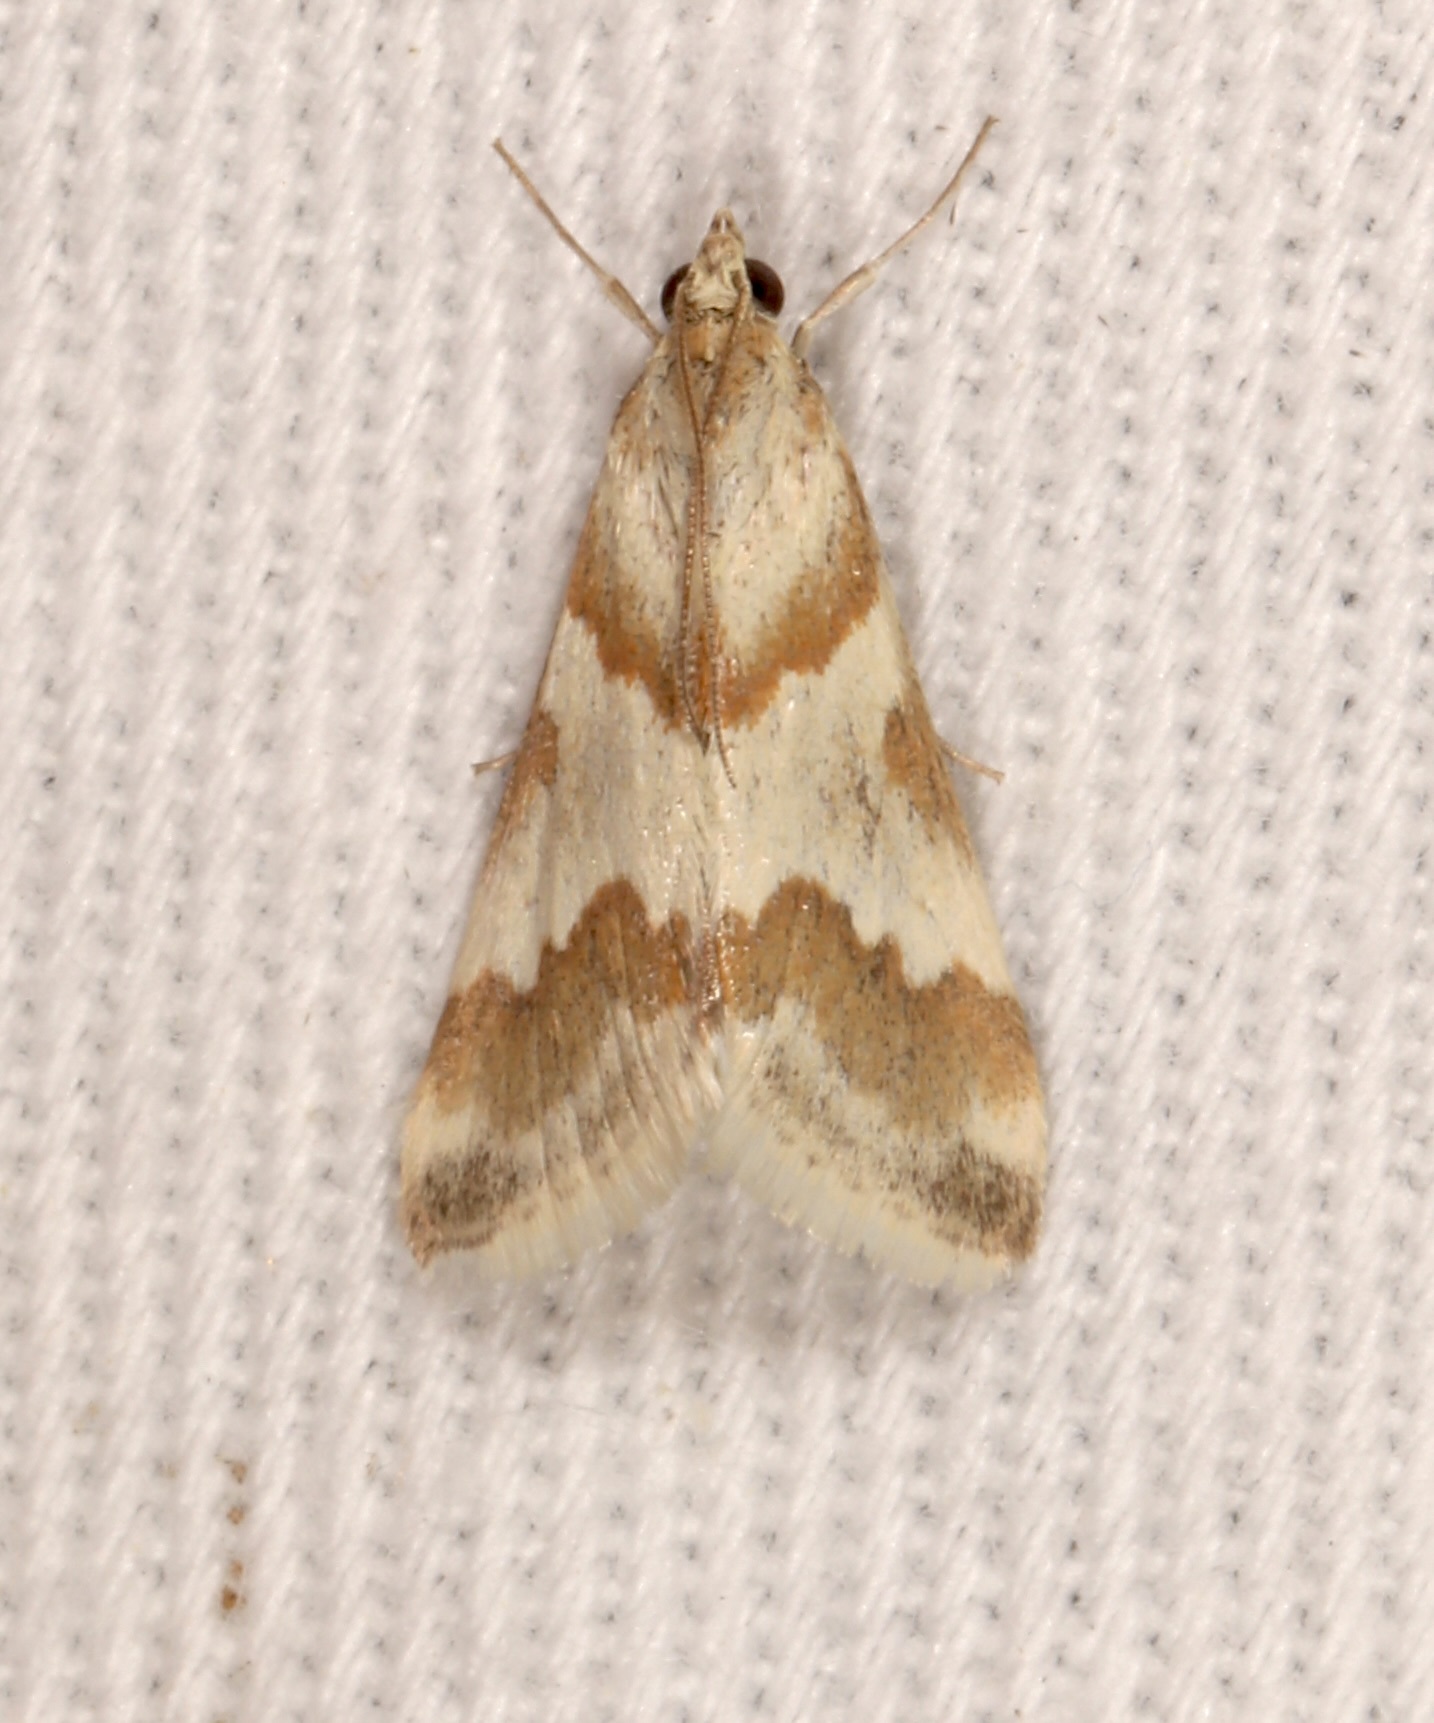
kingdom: Animalia
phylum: Arthropoda
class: Insecta
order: Lepidoptera
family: Crambidae
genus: Noctuelia
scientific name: Noctuelia Mimoschinia rufofascialis
